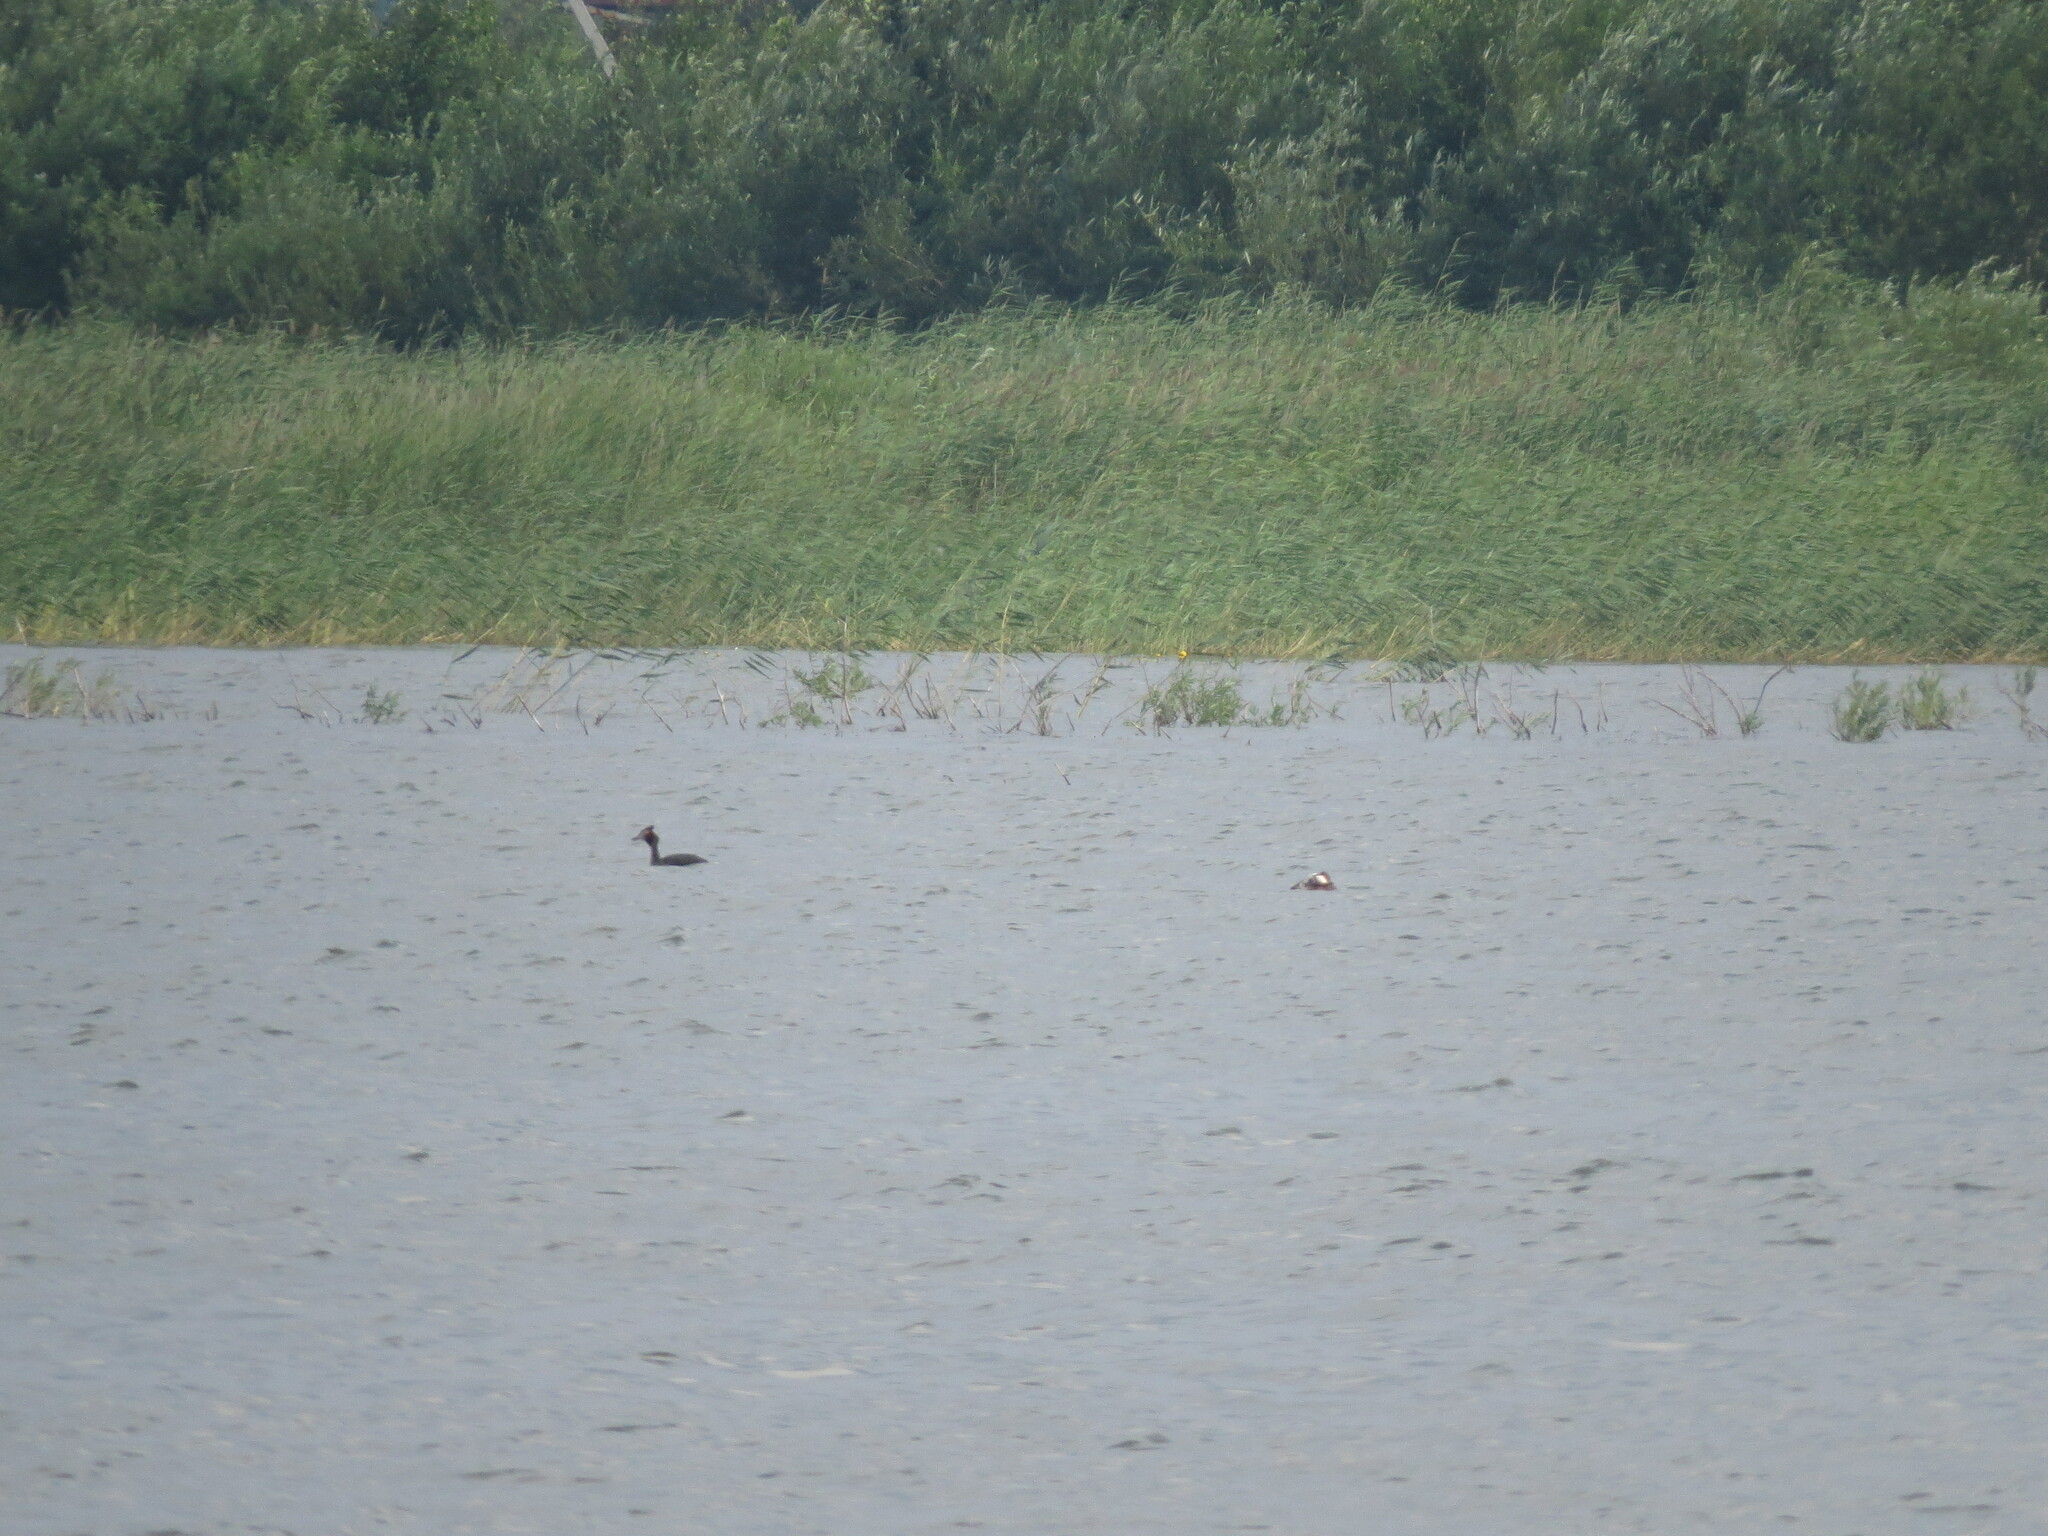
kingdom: Animalia
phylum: Chordata
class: Aves
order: Podicipediformes
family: Podicipedidae
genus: Podiceps
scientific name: Podiceps cristatus
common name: Great crested grebe
